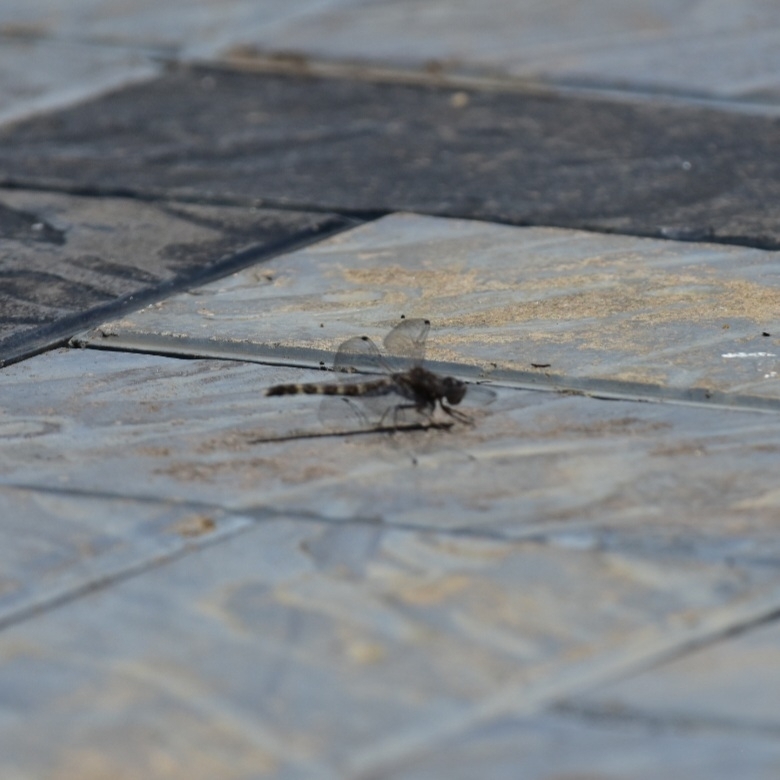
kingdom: Animalia
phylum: Arthropoda
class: Insecta
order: Odonata
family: Libellulidae
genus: Bradinopyga
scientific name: Bradinopyga geminata
